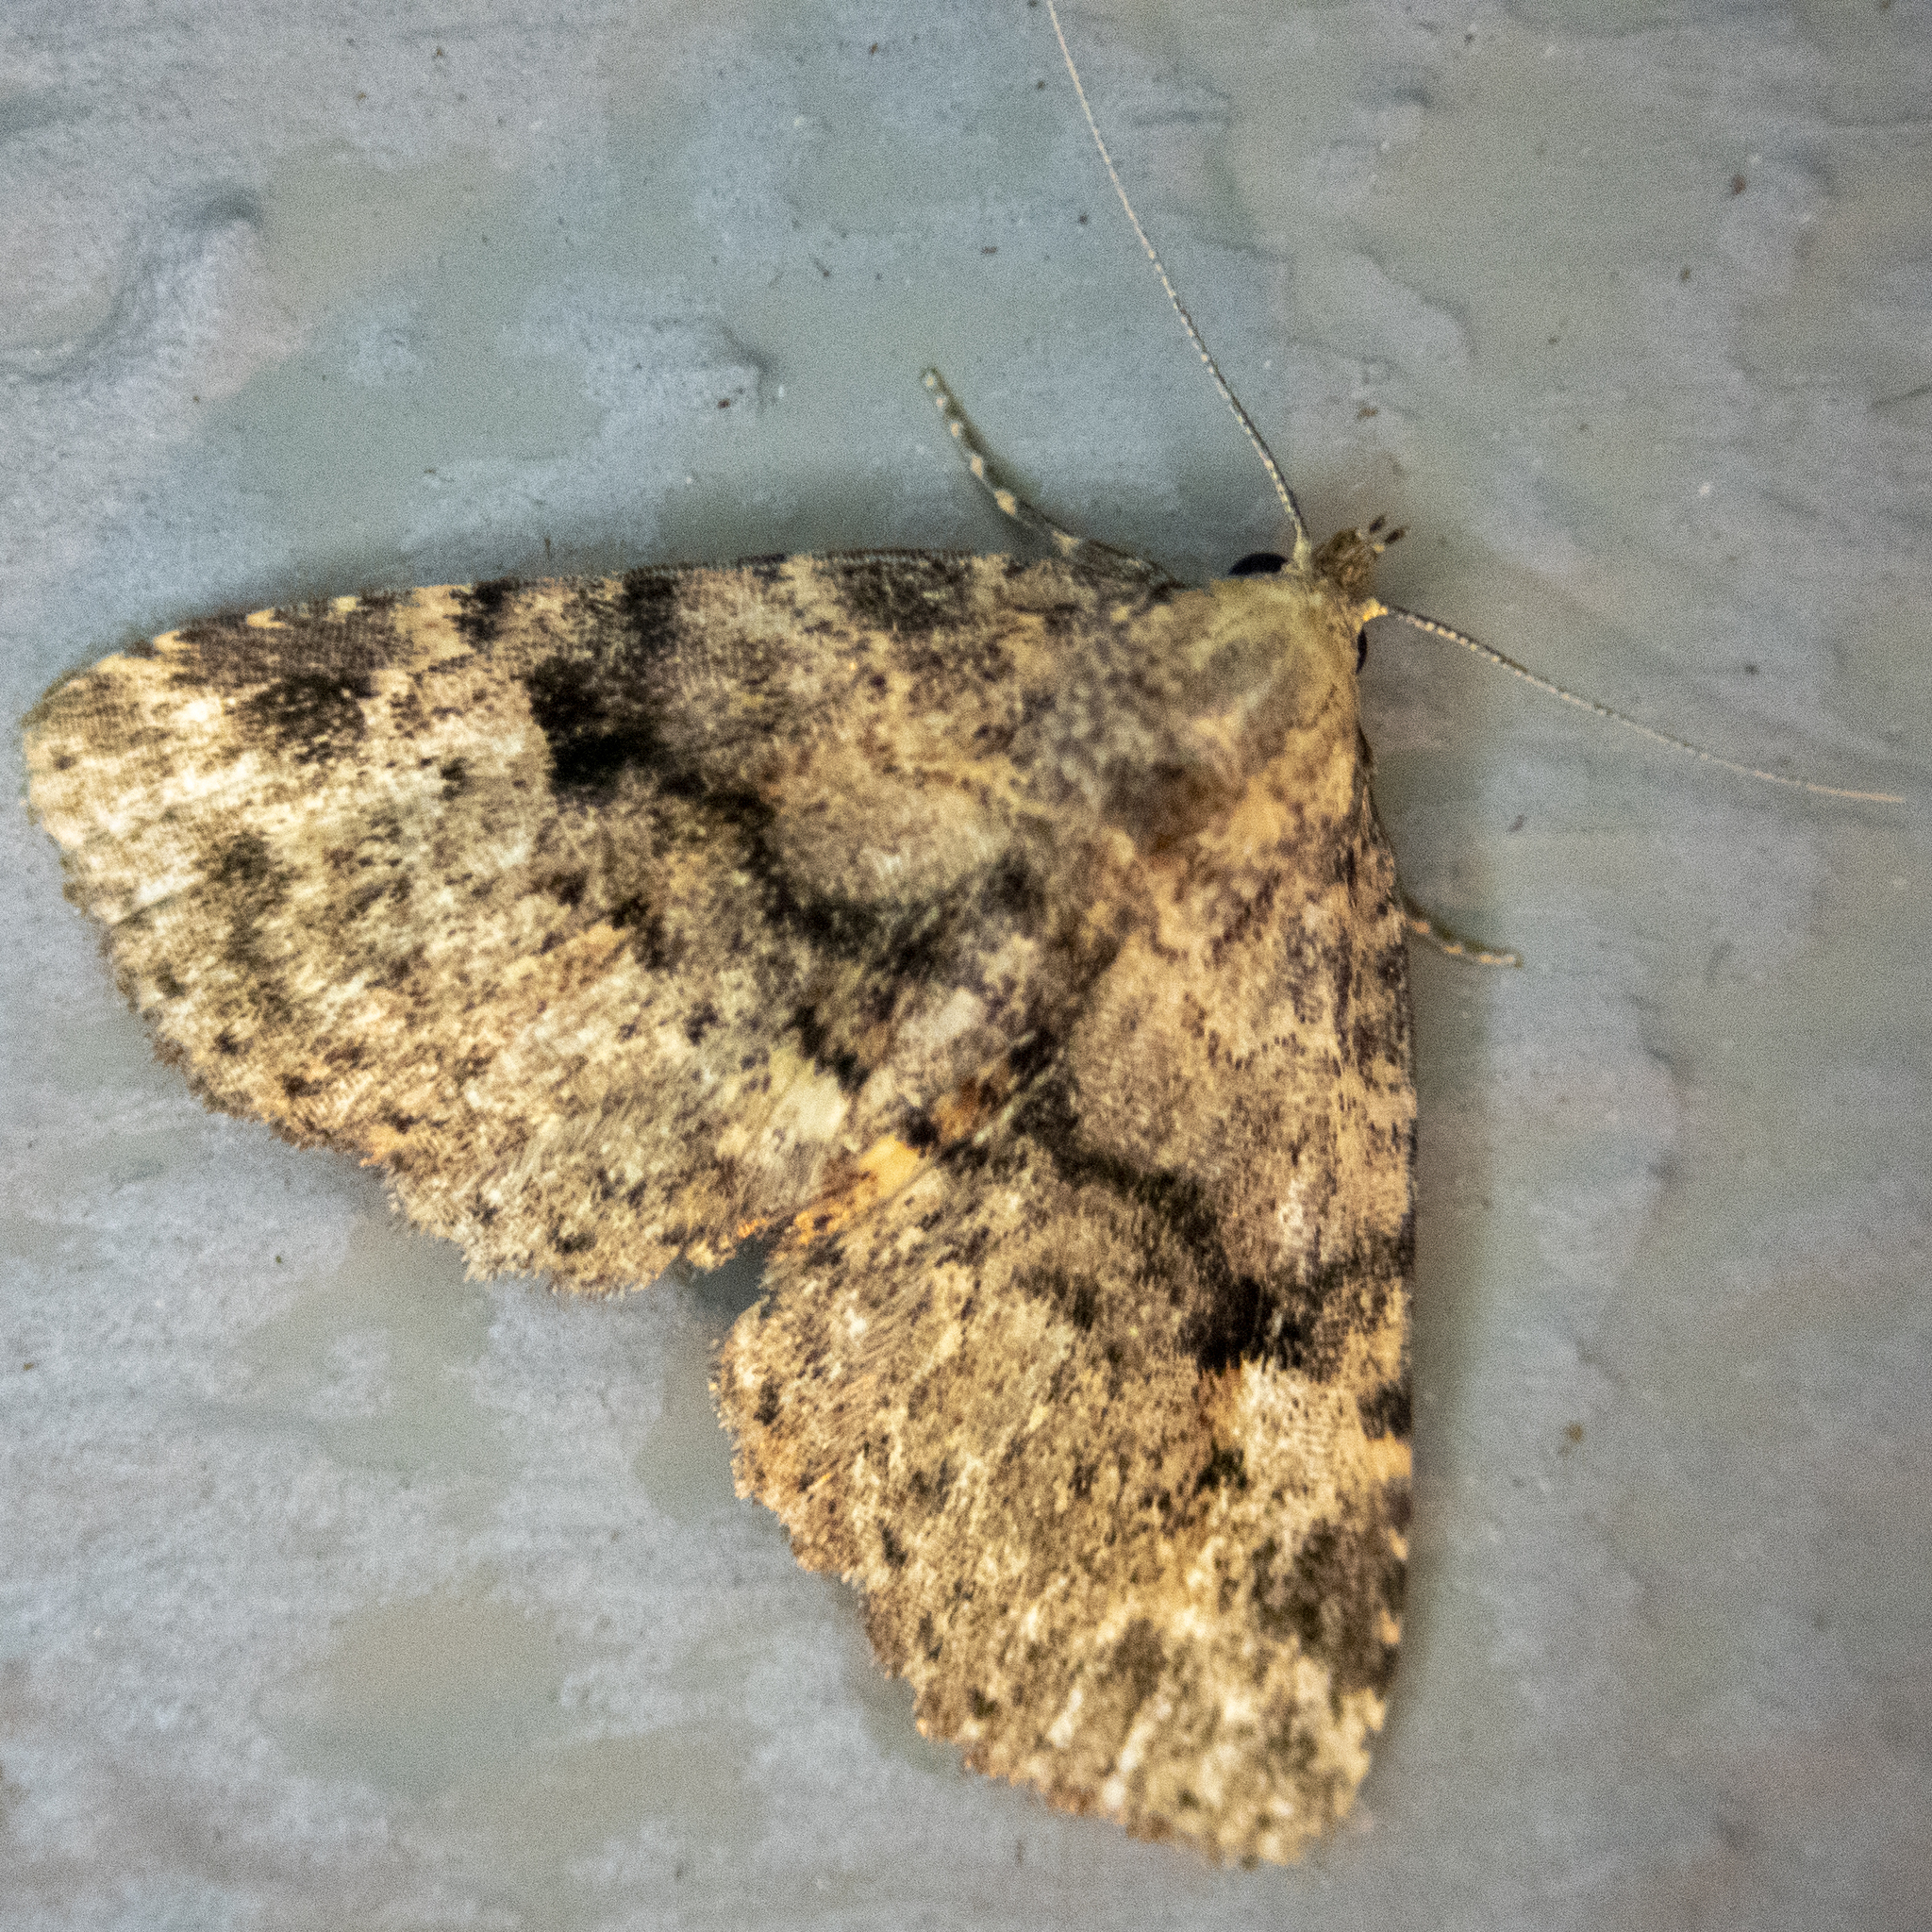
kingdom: Animalia
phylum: Arthropoda
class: Insecta
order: Lepidoptera
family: Erebidae
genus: Metalectra
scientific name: Metalectra quadrisignata
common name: Four-spotted fungus moth
